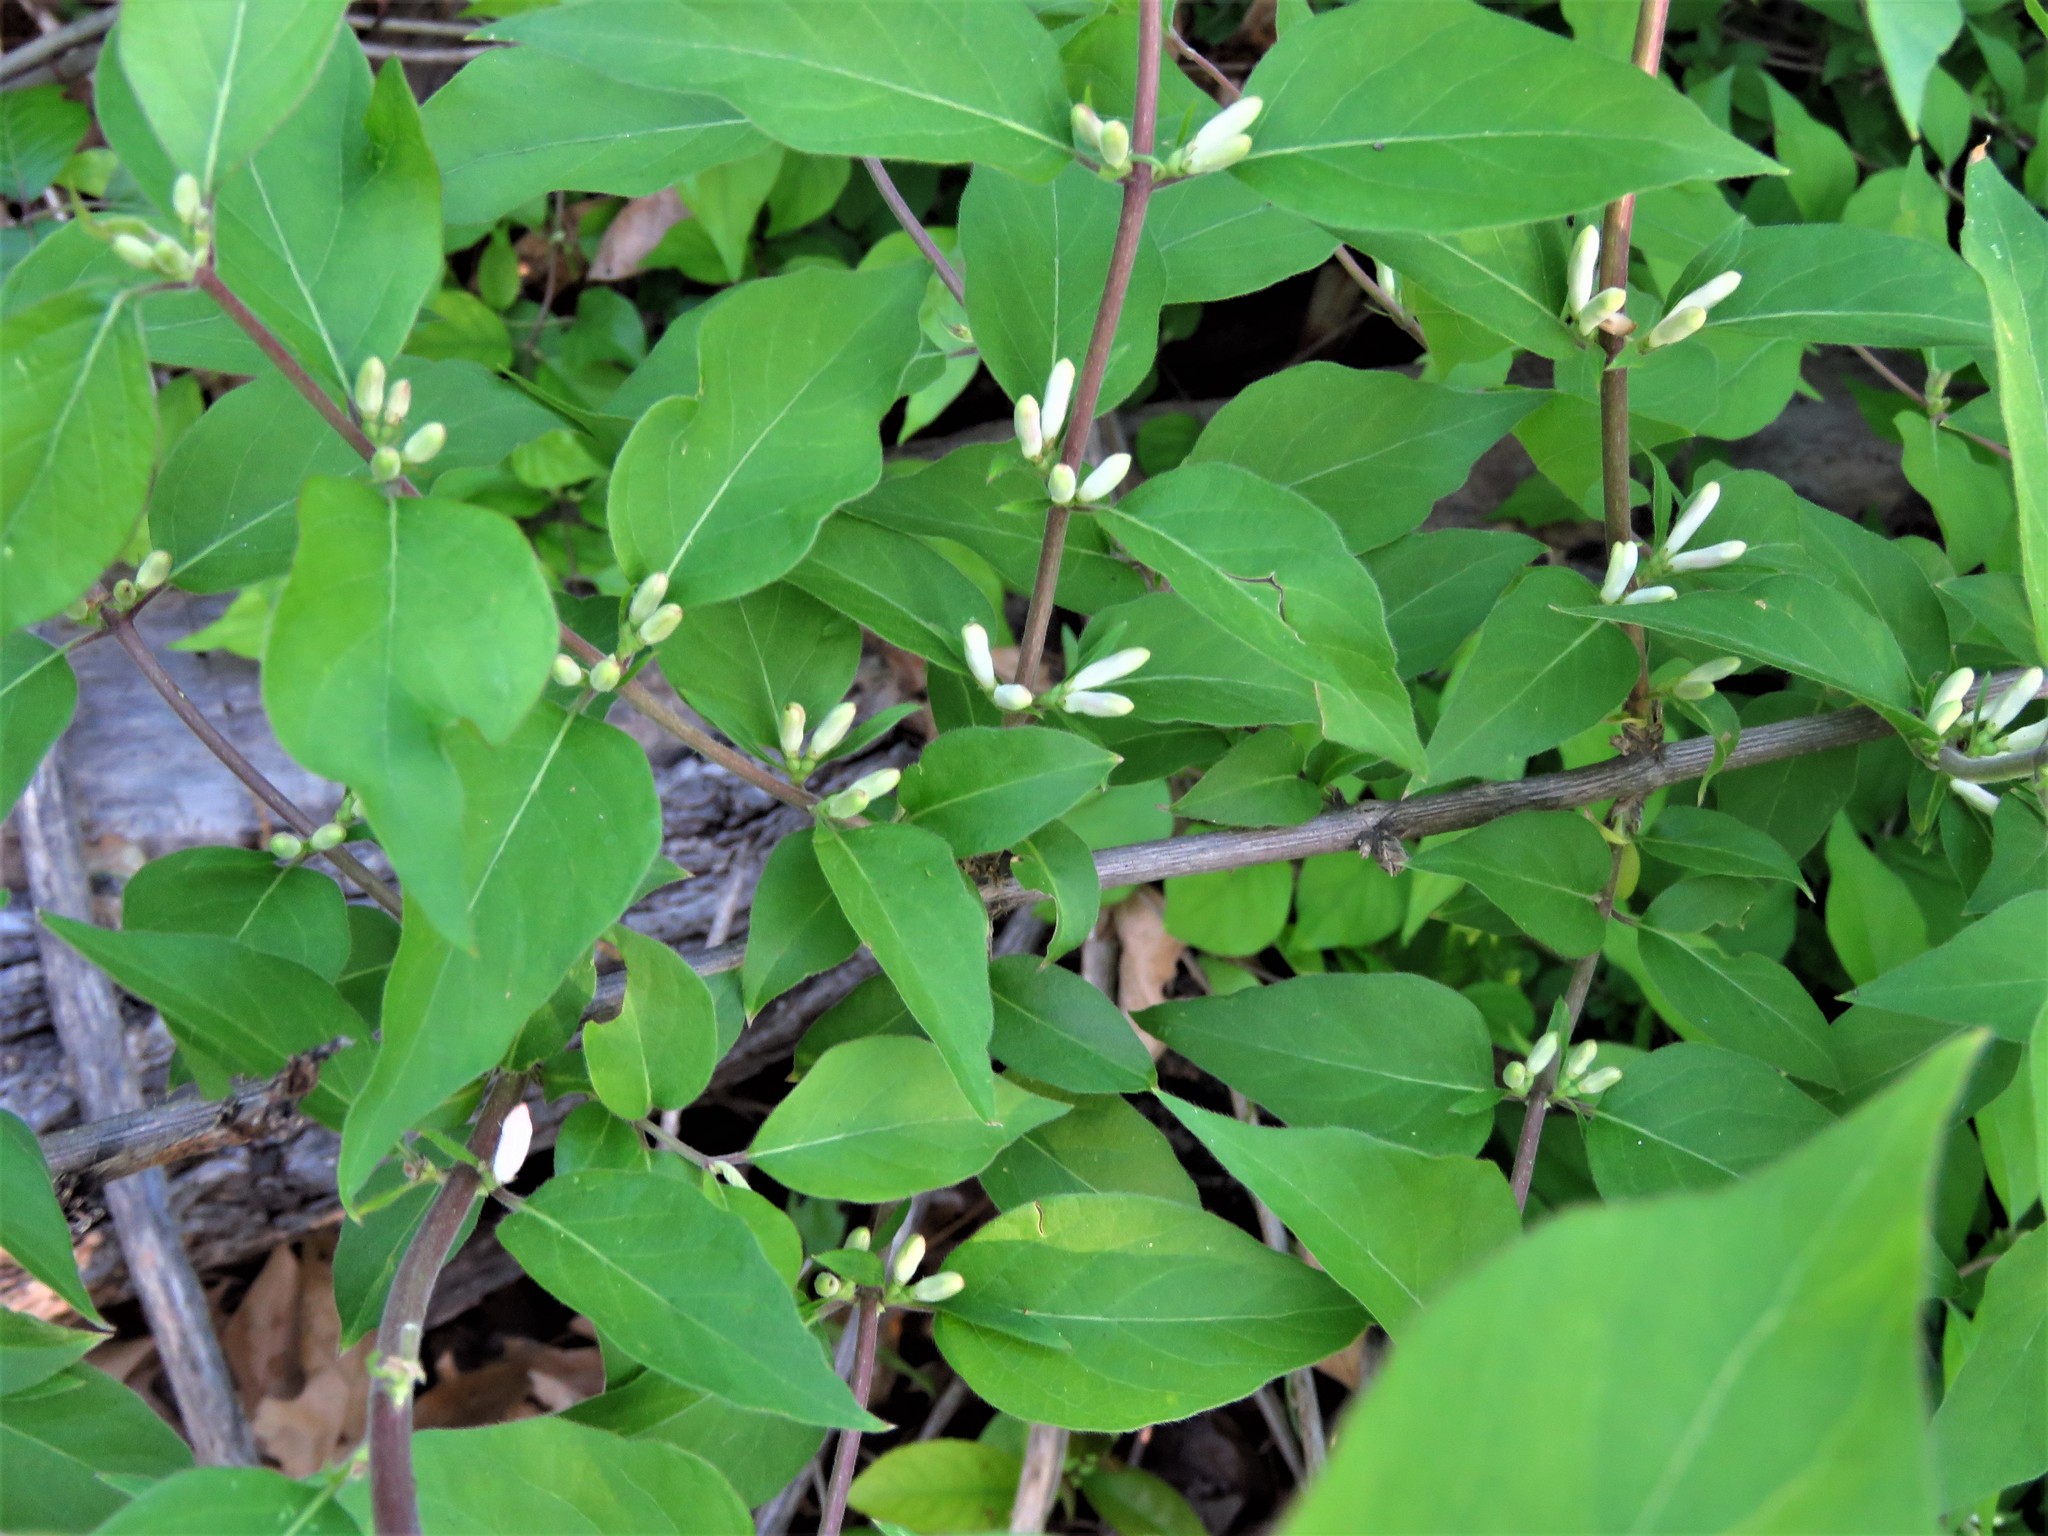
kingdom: Plantae
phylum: Tracheophyta
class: Magnoliopsida
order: Dipsacales
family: Caprifoliaceae
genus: Lonicera
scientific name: Lonicera maackii
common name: Amur honeysuckle
